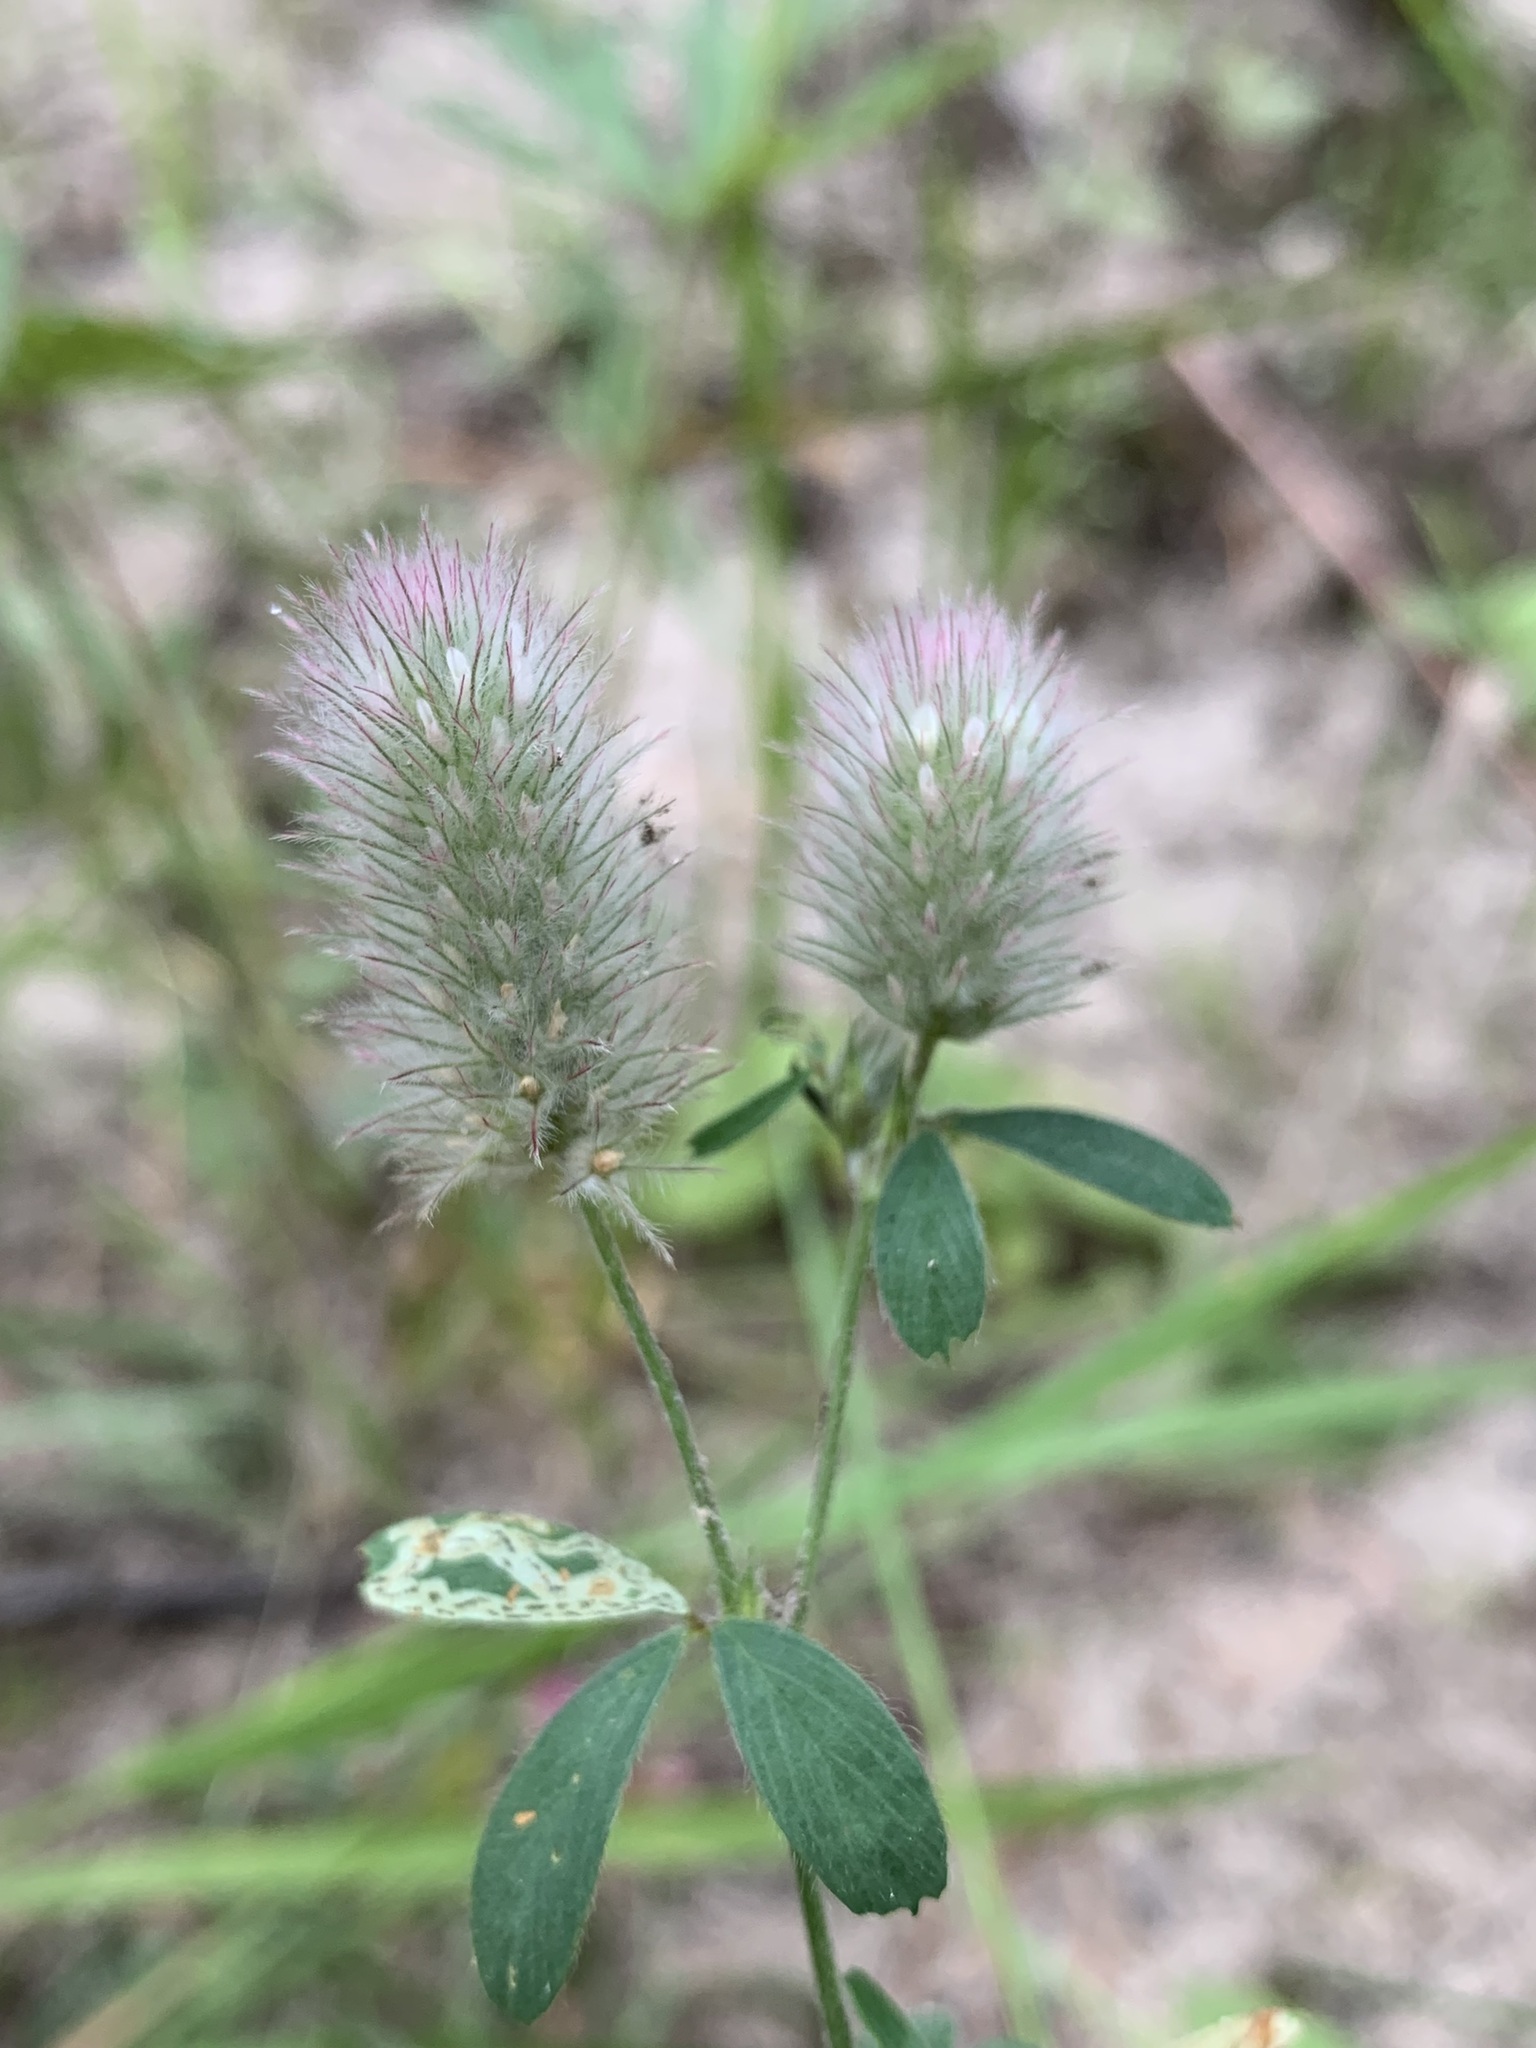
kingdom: Plantae
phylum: Tracheophyta
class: Magnoliopsida
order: Fabales
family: Fabaceae
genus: Trifolium
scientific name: Trifolium arvense
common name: Hare's-foot clover
